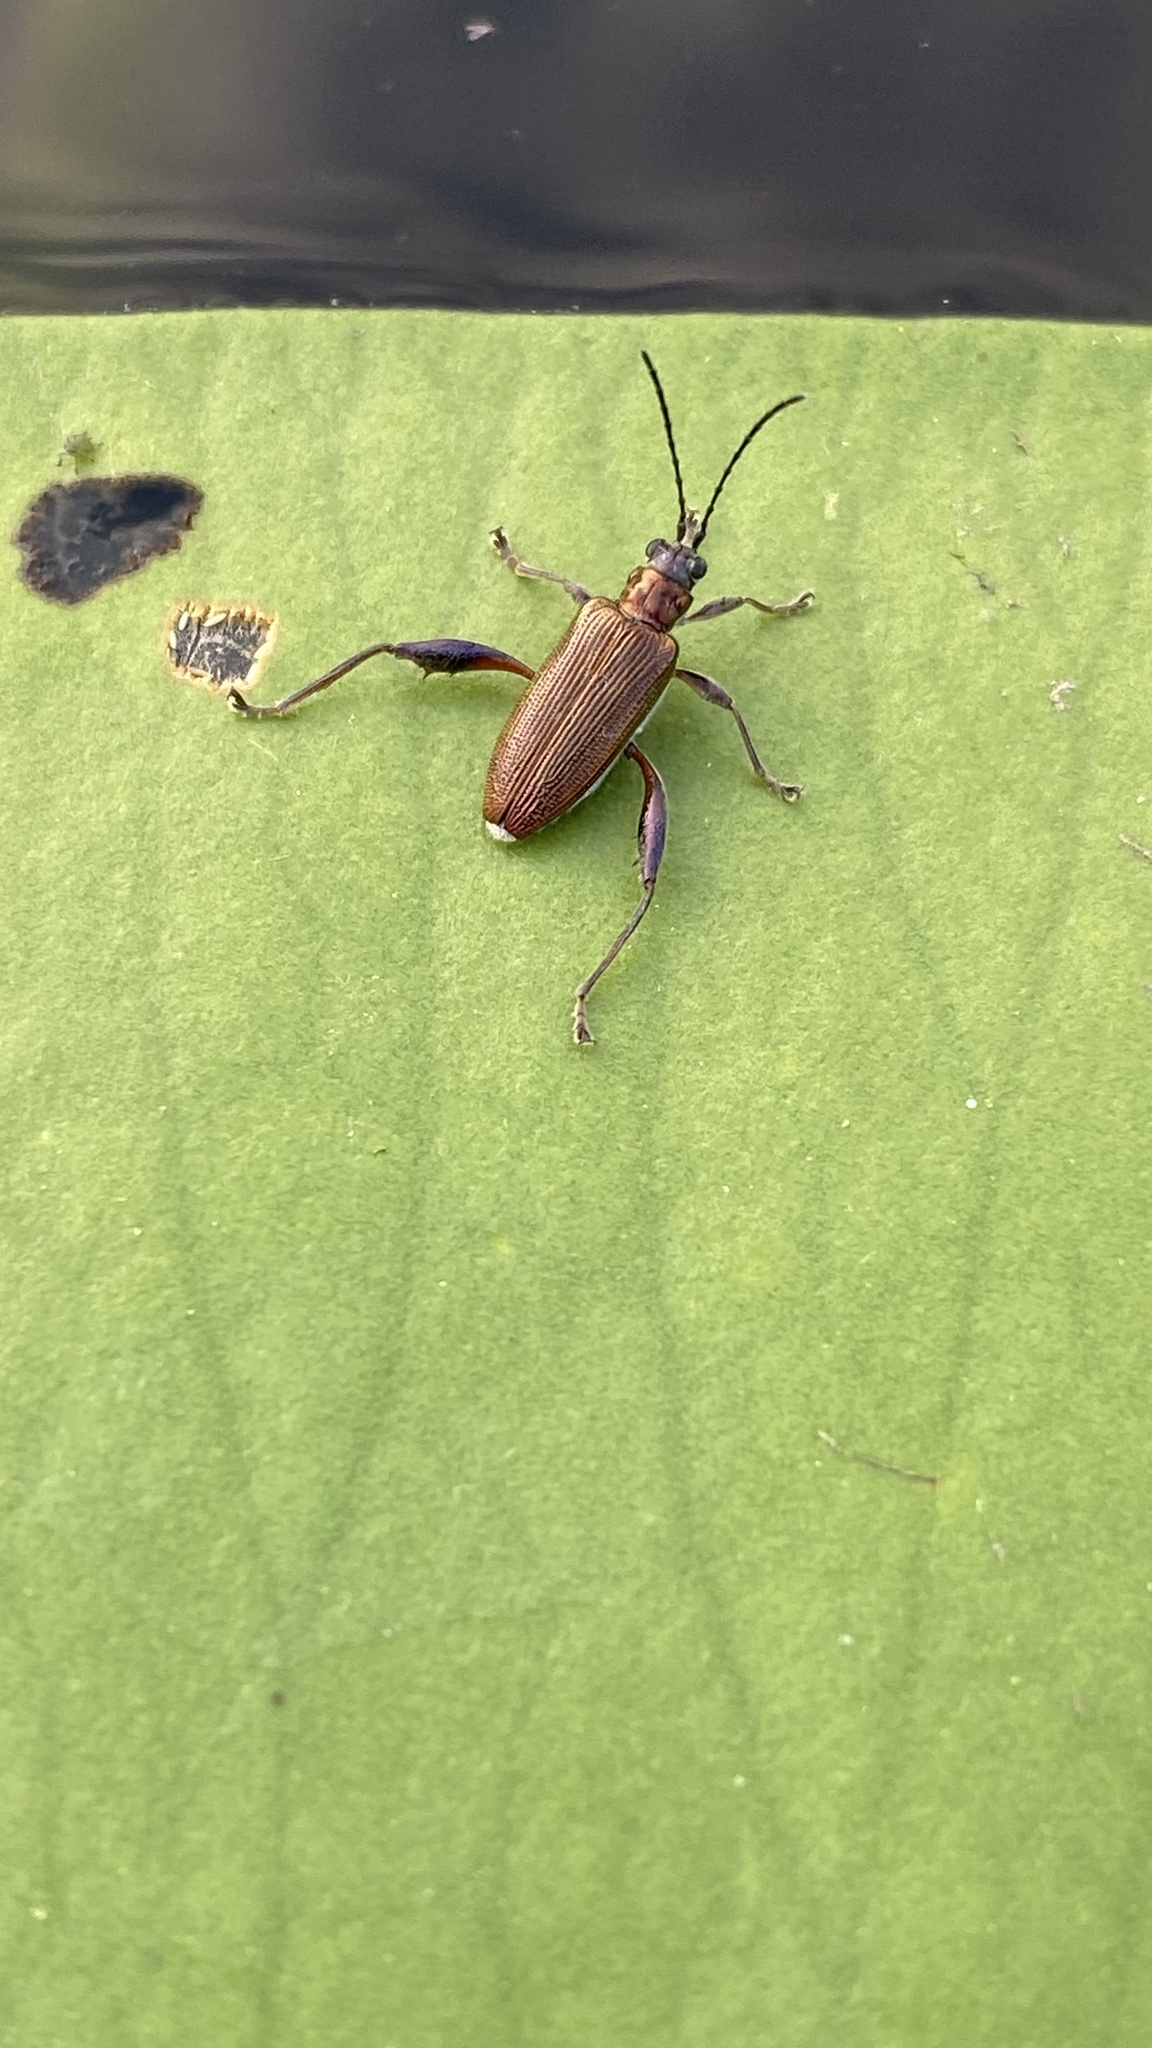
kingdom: Animalia
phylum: Arthropoda
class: Insecta
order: Coleoptera
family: Chrysomelidae
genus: Donacia
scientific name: Donacia crassipes
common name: Water-lily reed beetle
